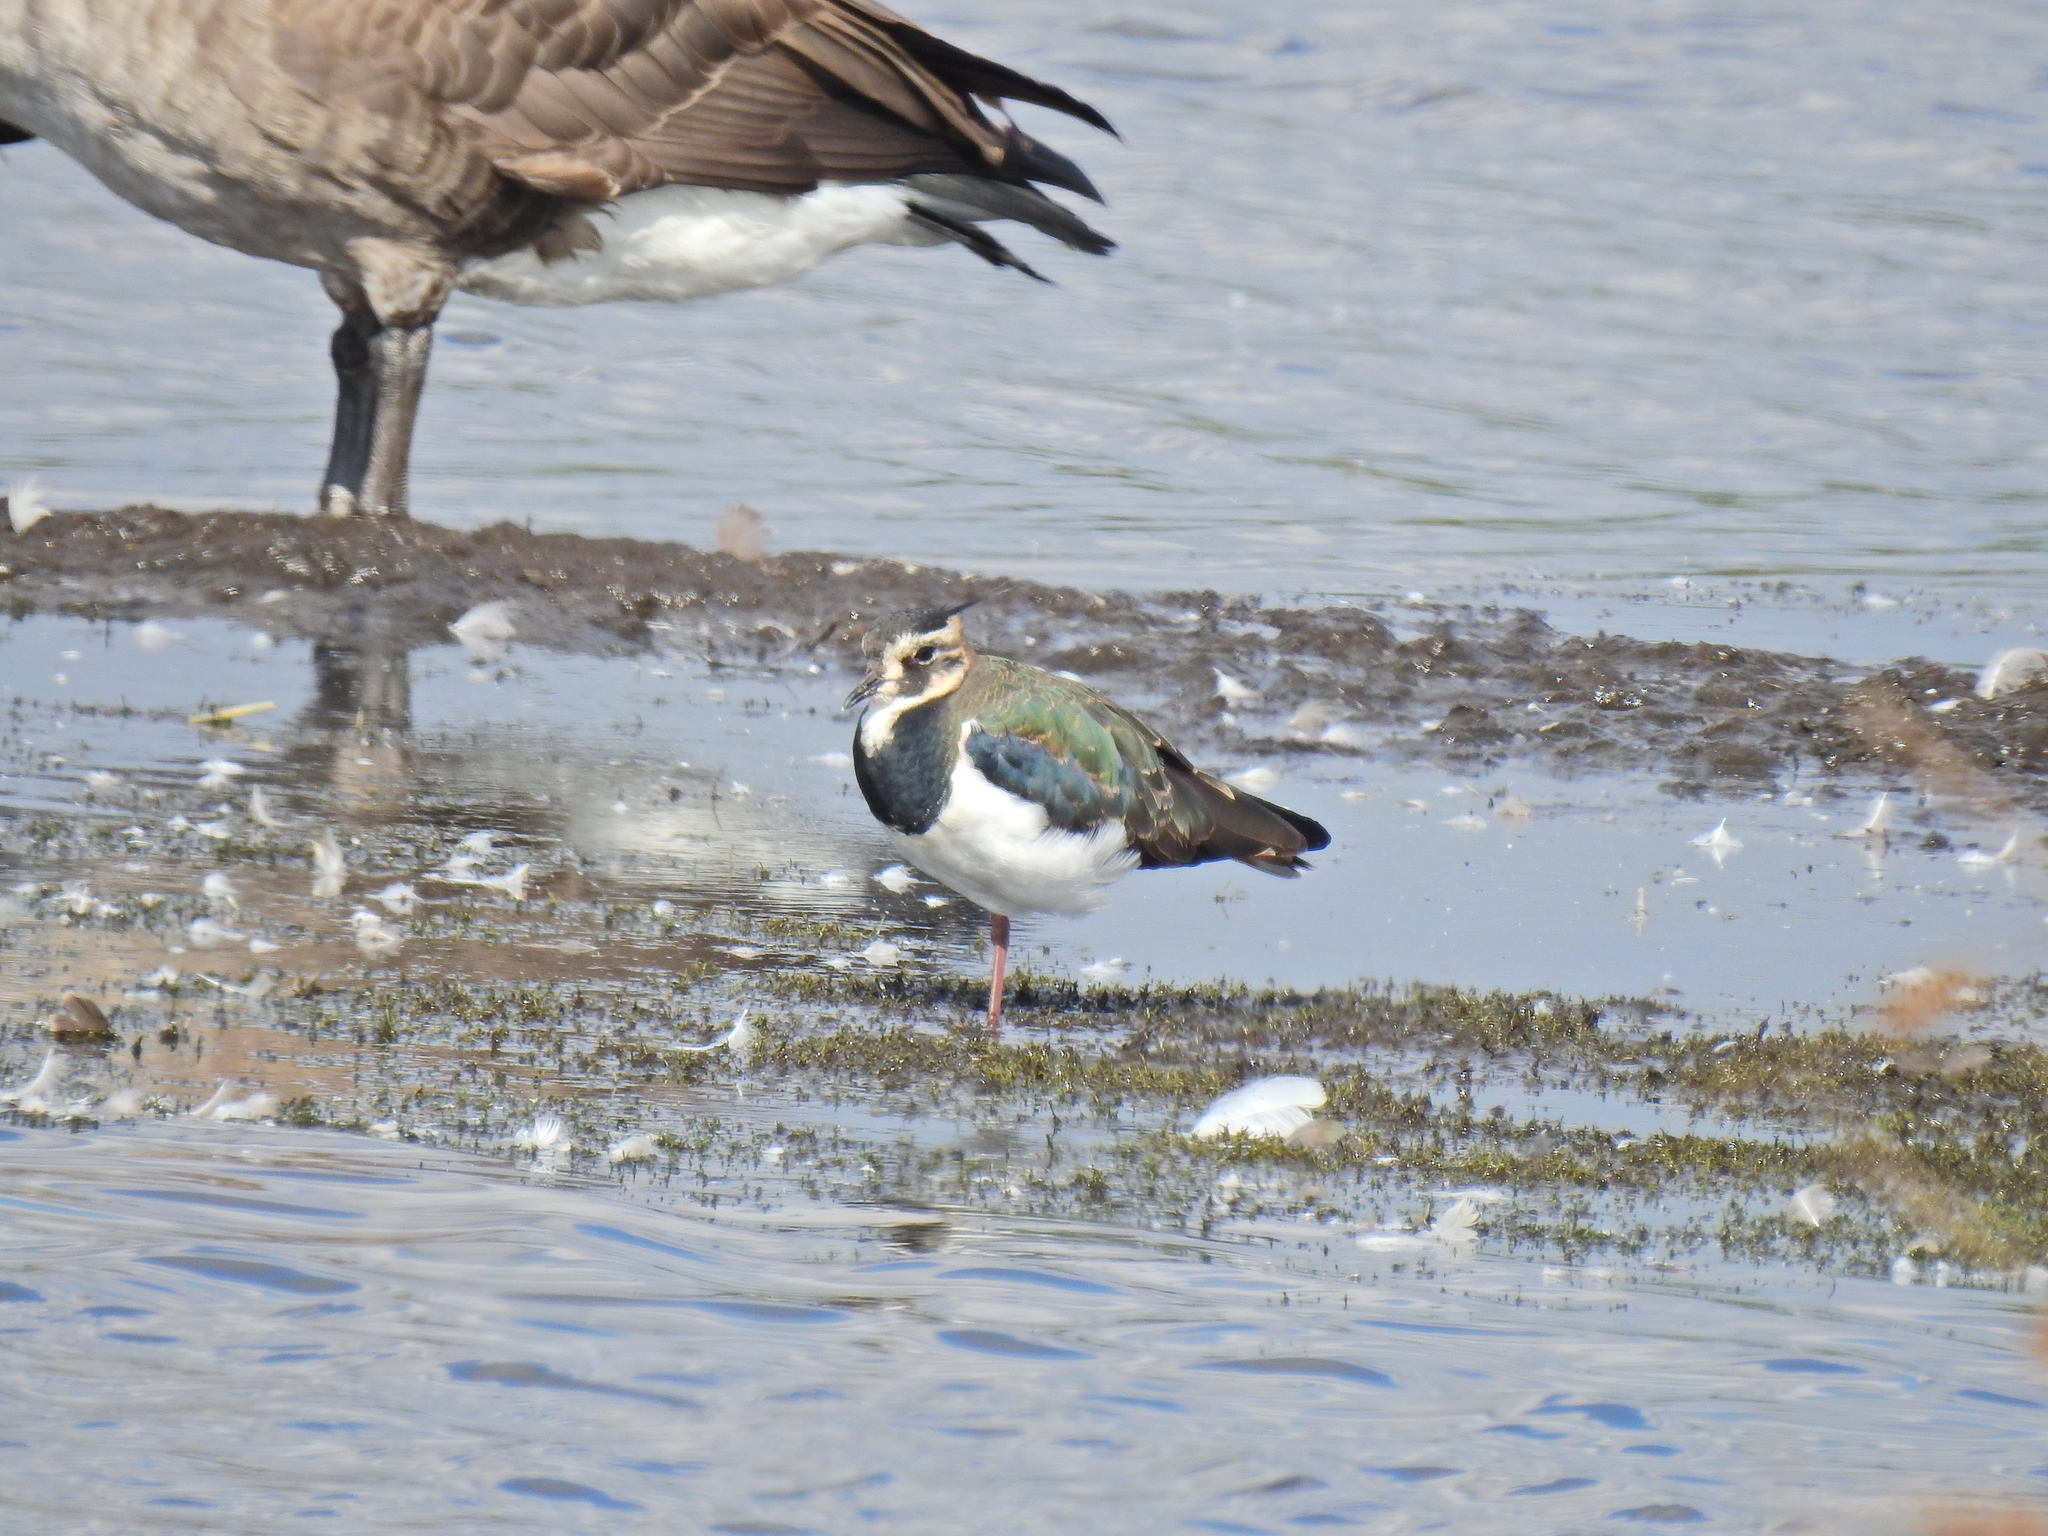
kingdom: Animalia
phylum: Chordata
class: Aves
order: Charadriiformes
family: Charadriidae
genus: Vanellus
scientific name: Vanellus vanellus
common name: Northern lapwing
